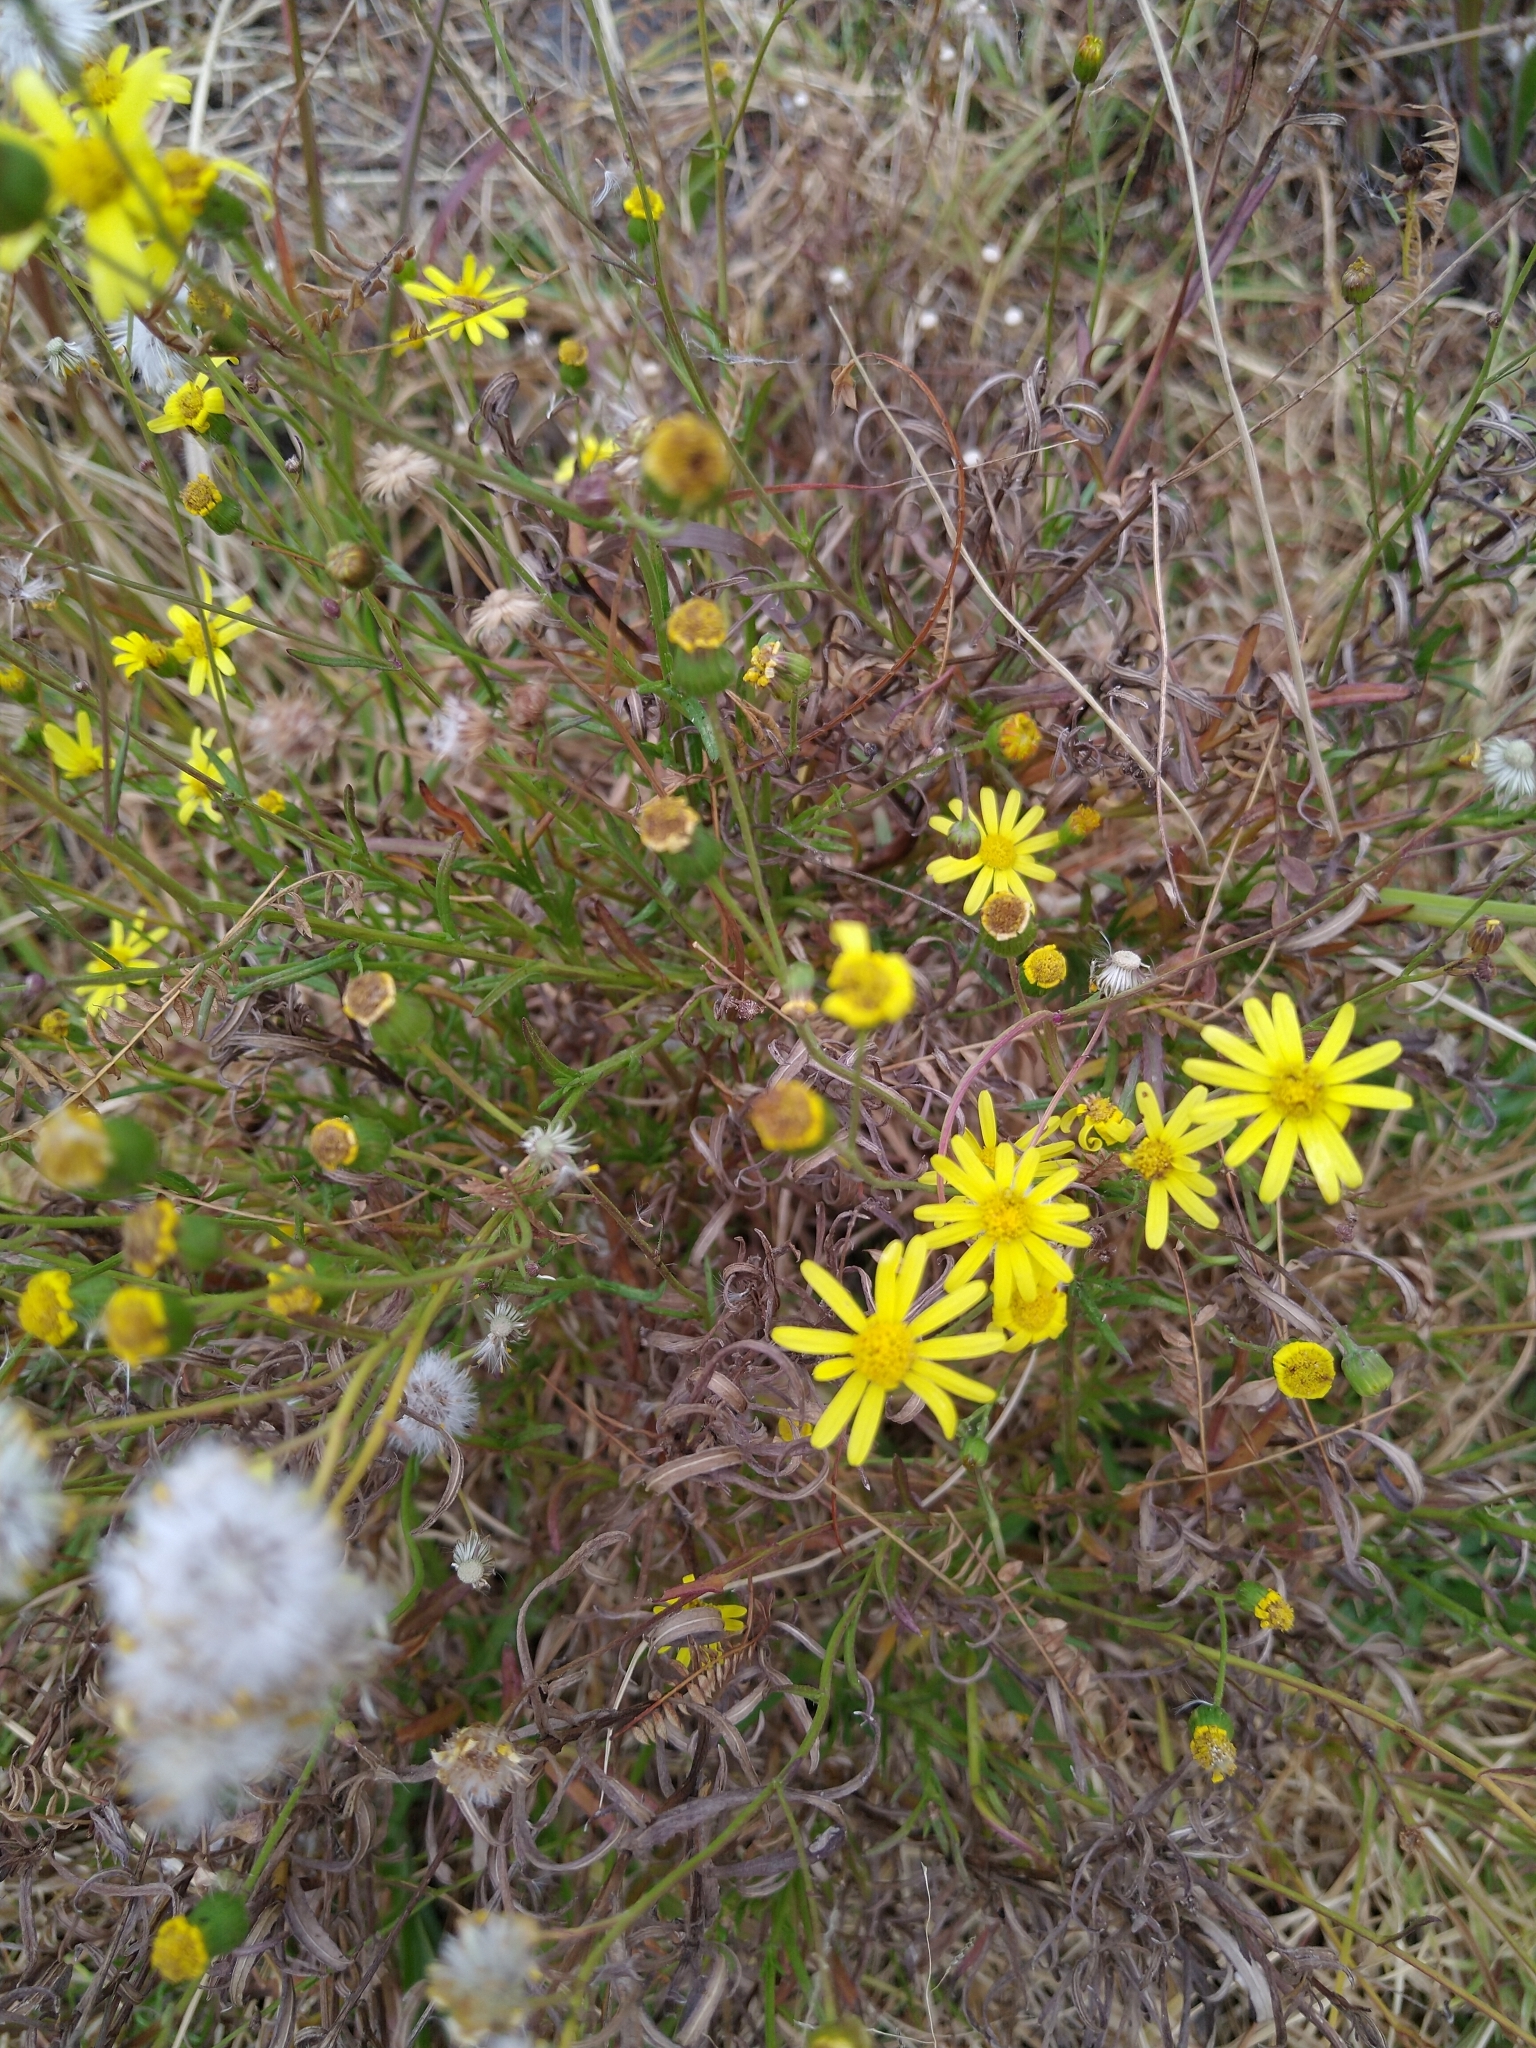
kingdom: Plantae
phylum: Tracheophyta
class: Magnoliopsida
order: Asterales
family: Asteraceae
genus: Senecio
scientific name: Senecio inaequidens
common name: Narrow-leaved ragwort
